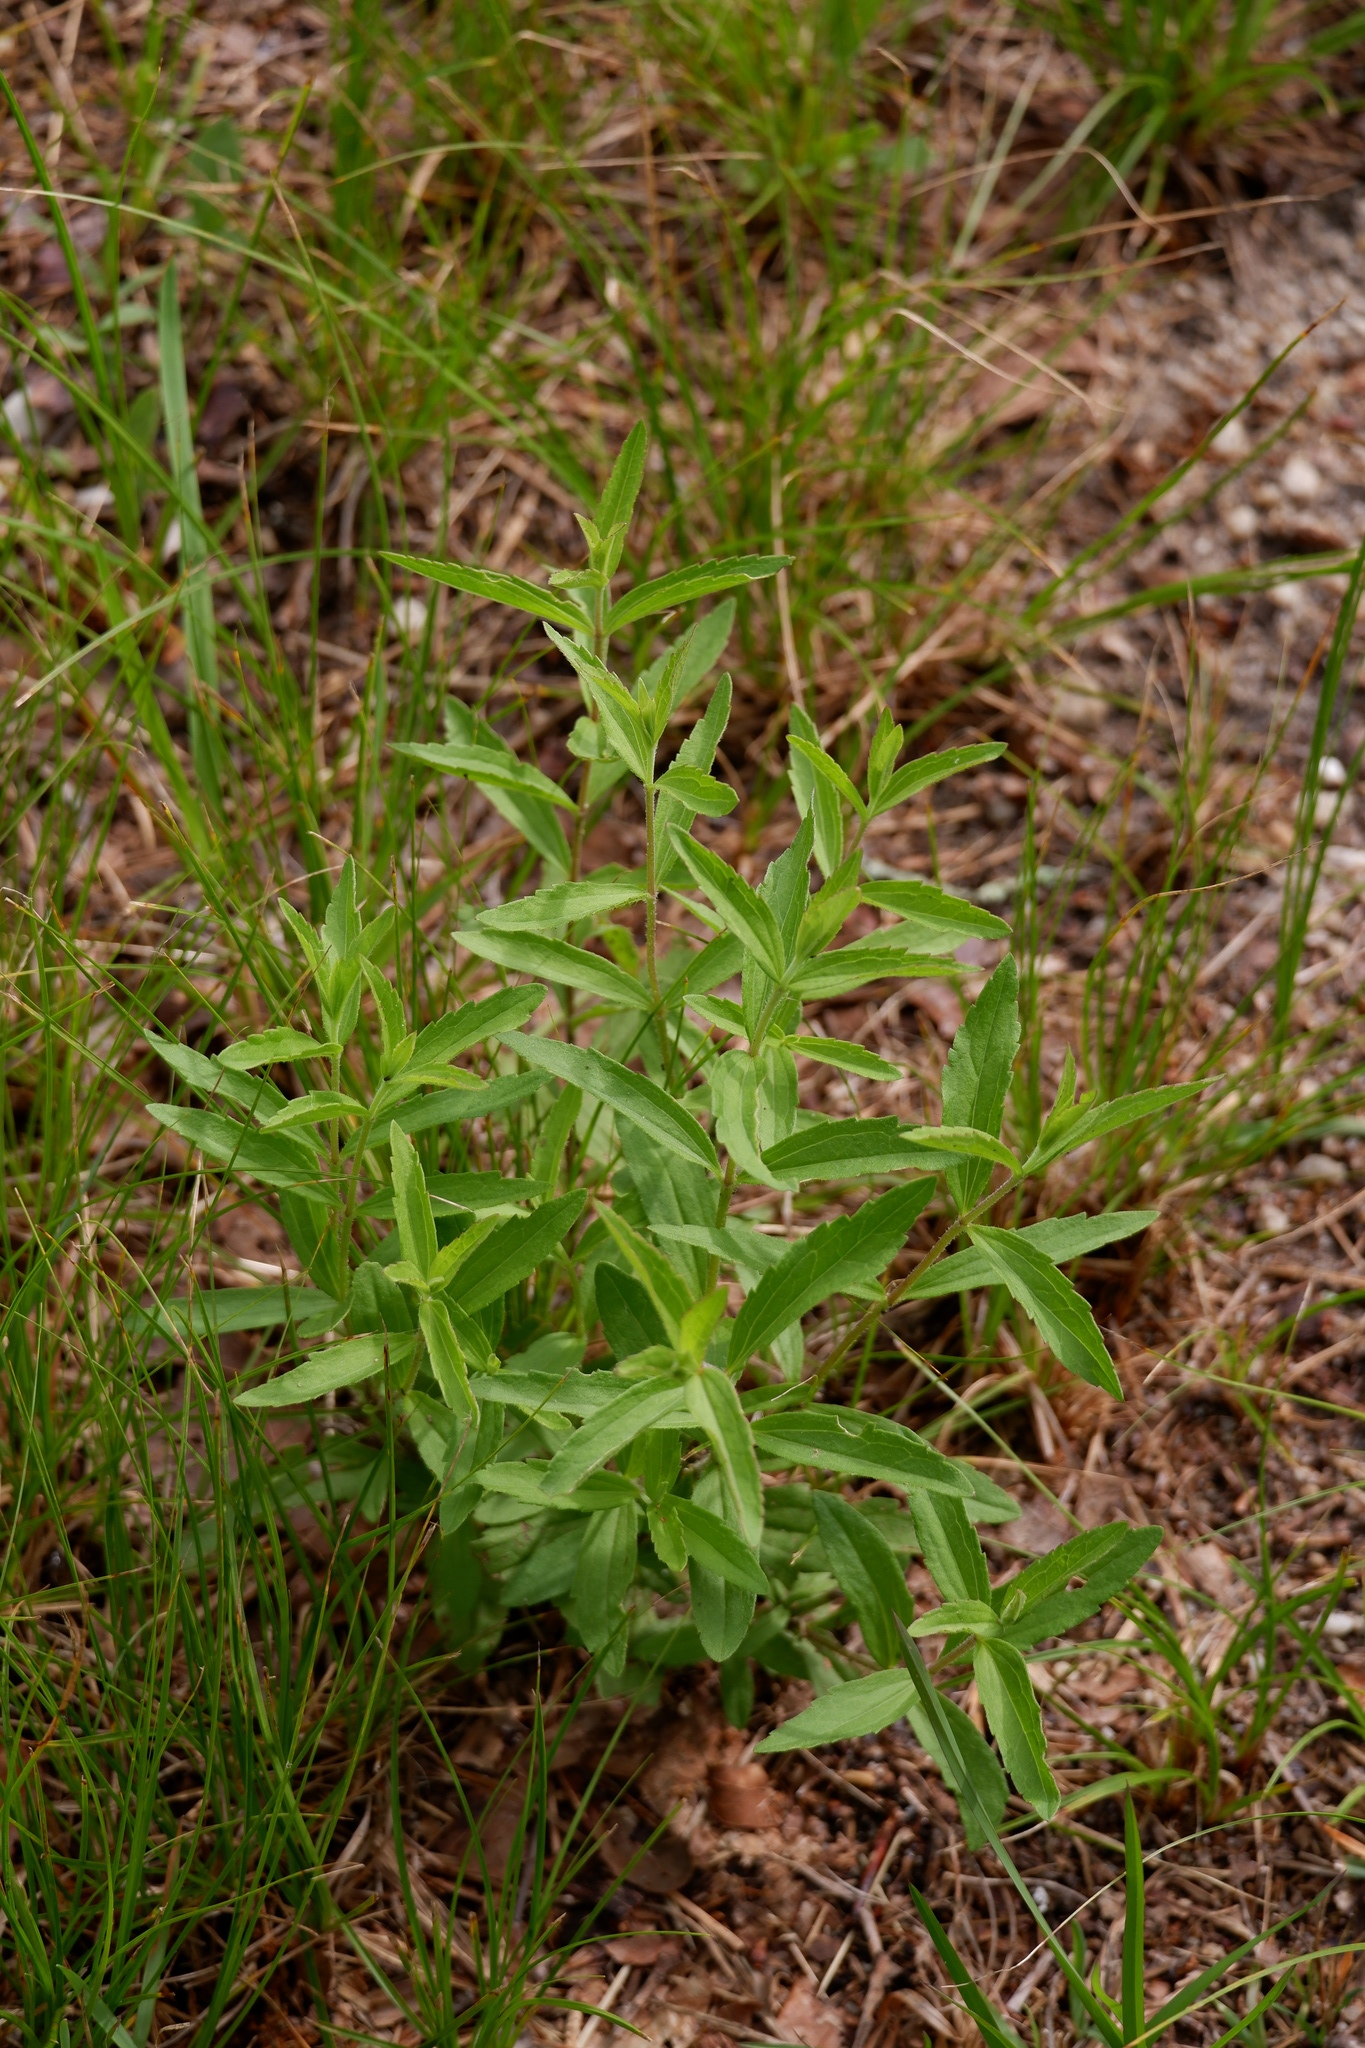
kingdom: Plantae
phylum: Tracheophyta
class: Magnoliopsida
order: Asterales
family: Asteraceae
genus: Eupatorium
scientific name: Eupatorium album
